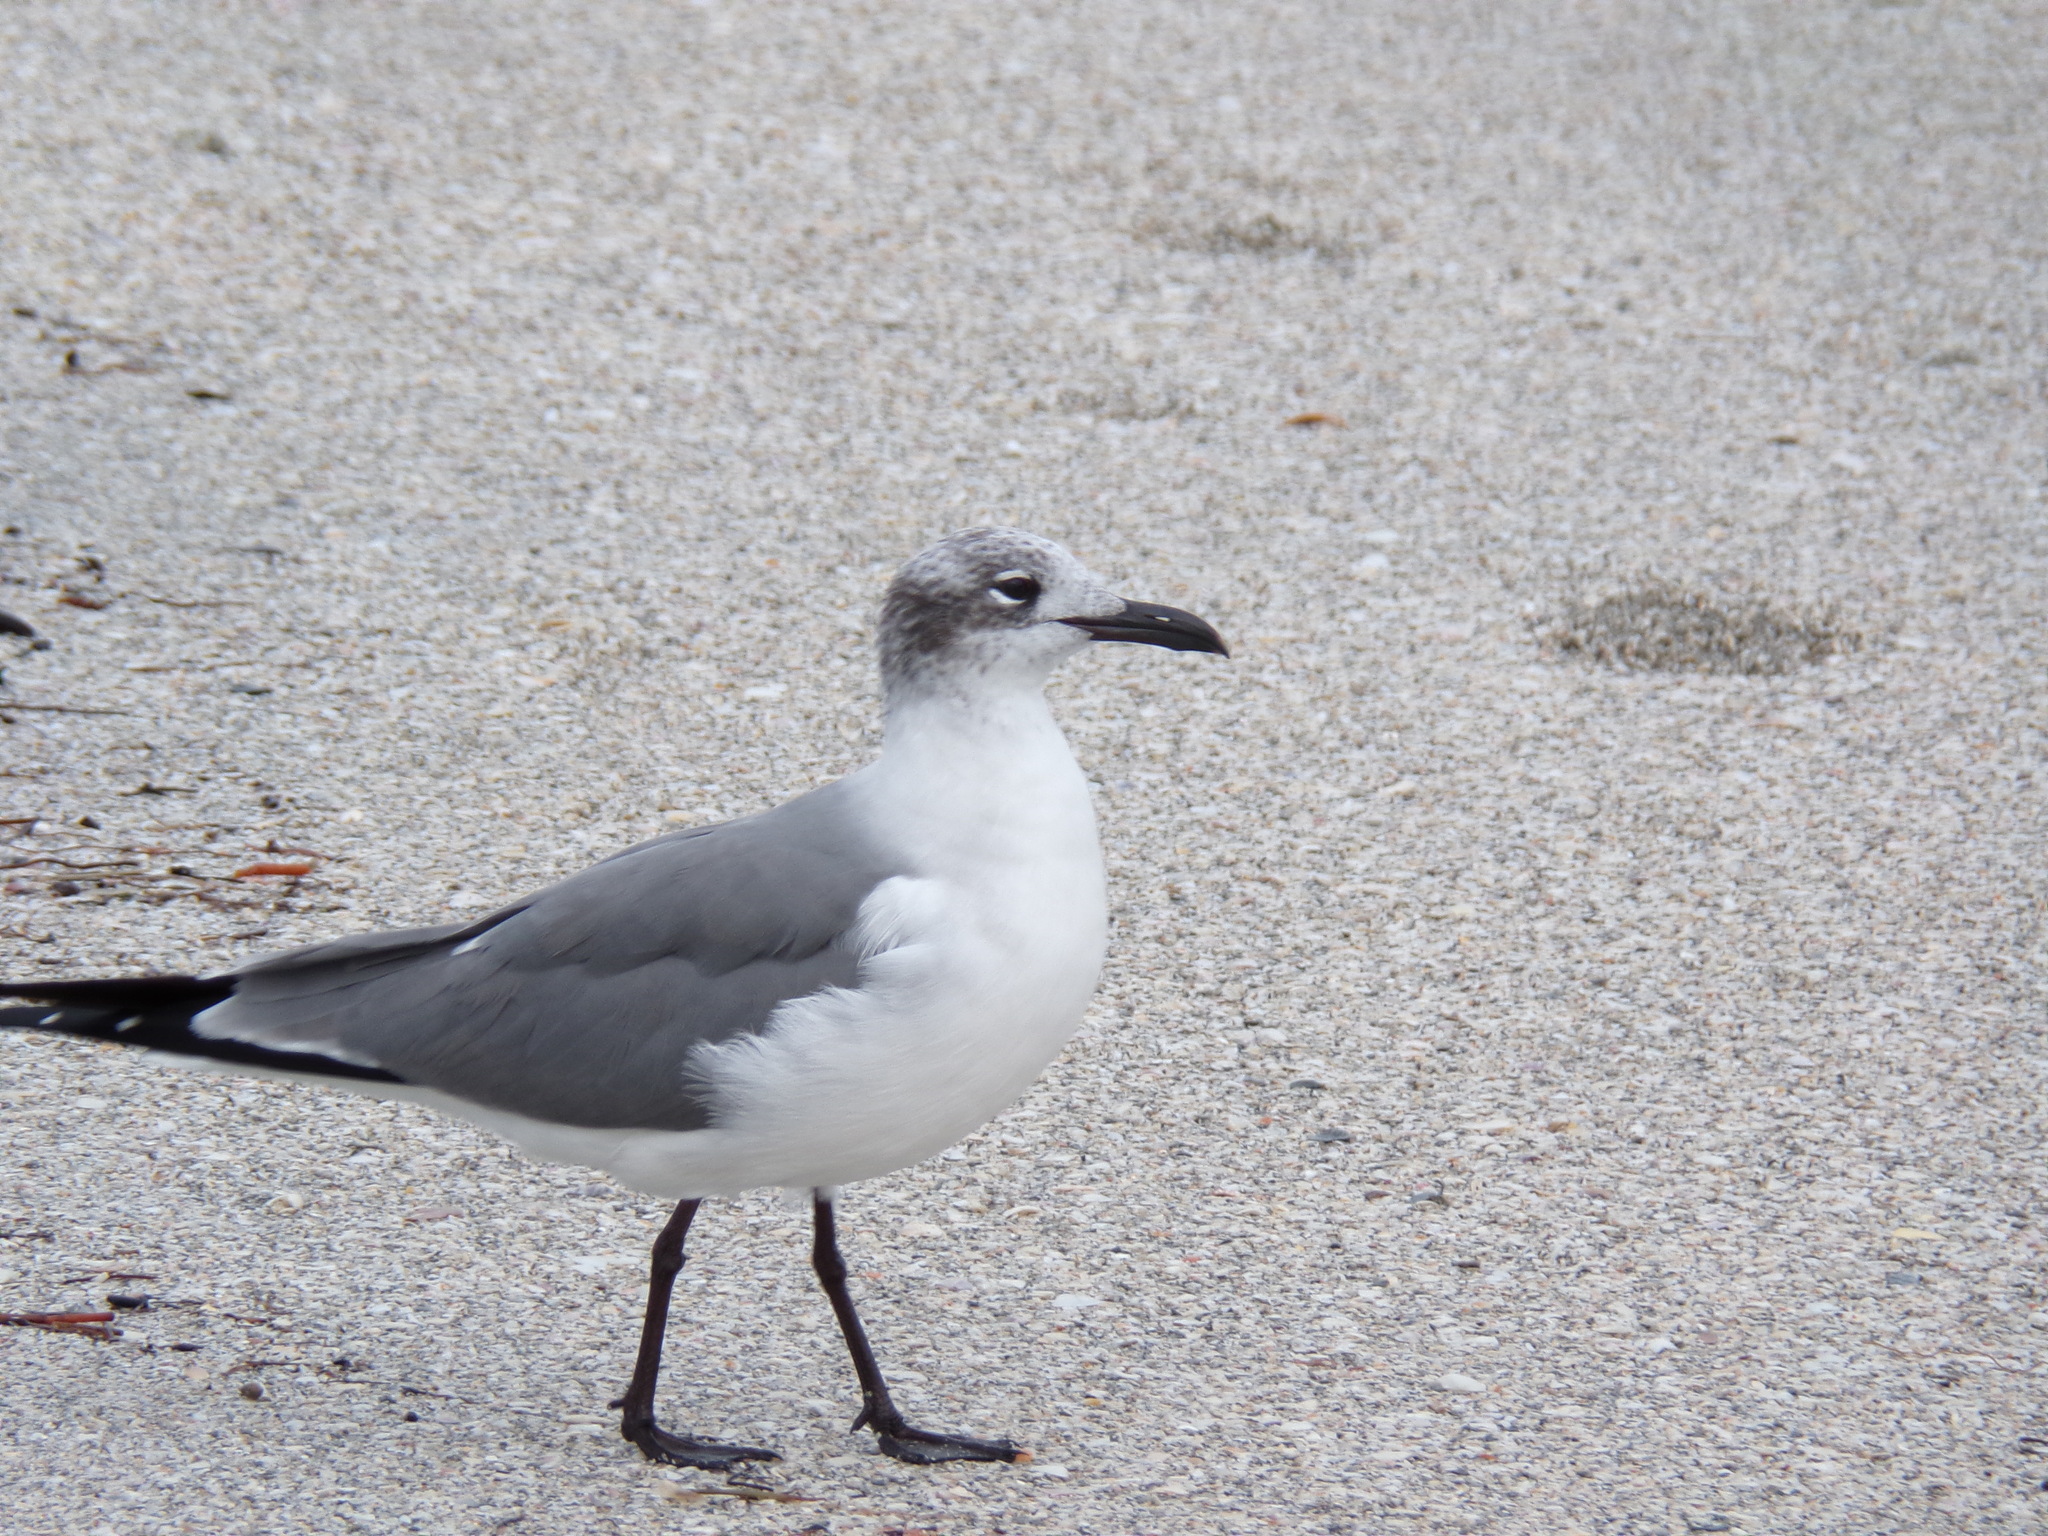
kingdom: Animalia
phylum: Chordata
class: Aves
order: Charadriiformes
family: Laridae
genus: Leucophaeus
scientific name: Leucophaeus atricilla
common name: Laughing gull
